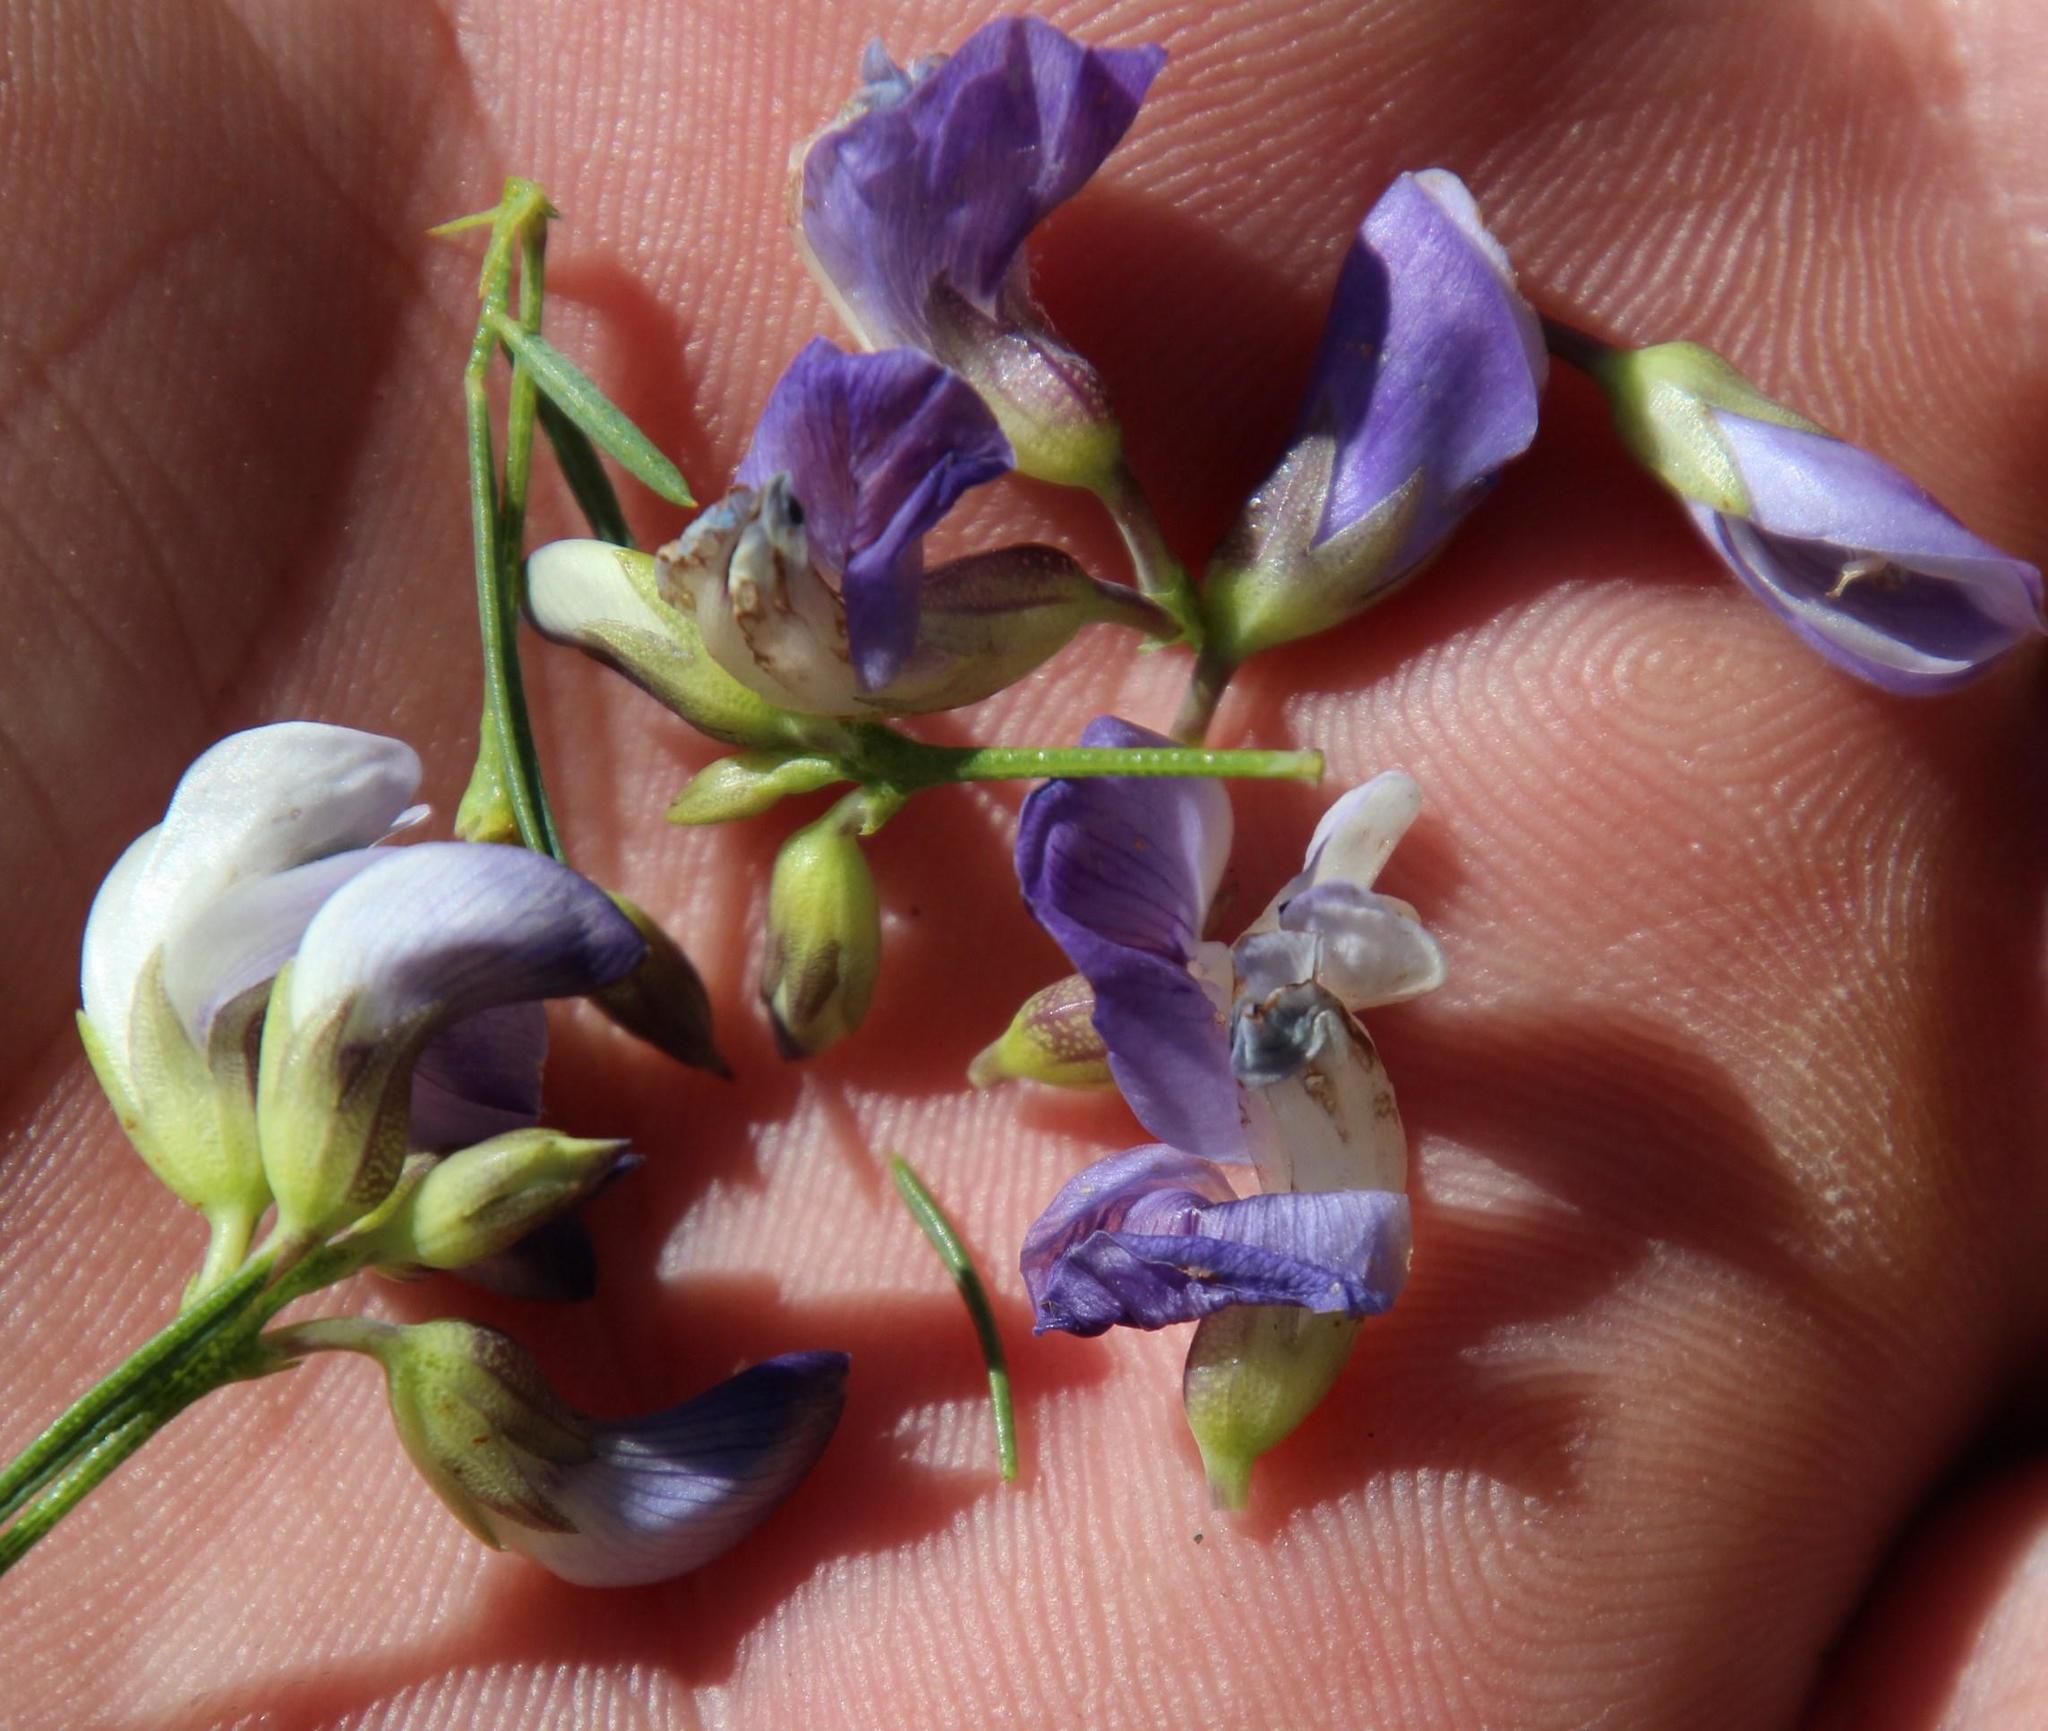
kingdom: Plantae
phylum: Tracheophyta
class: Magnoliopsida
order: Fabales
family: Fabaceae
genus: Psoralea
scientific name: Psoralea verrucosa
